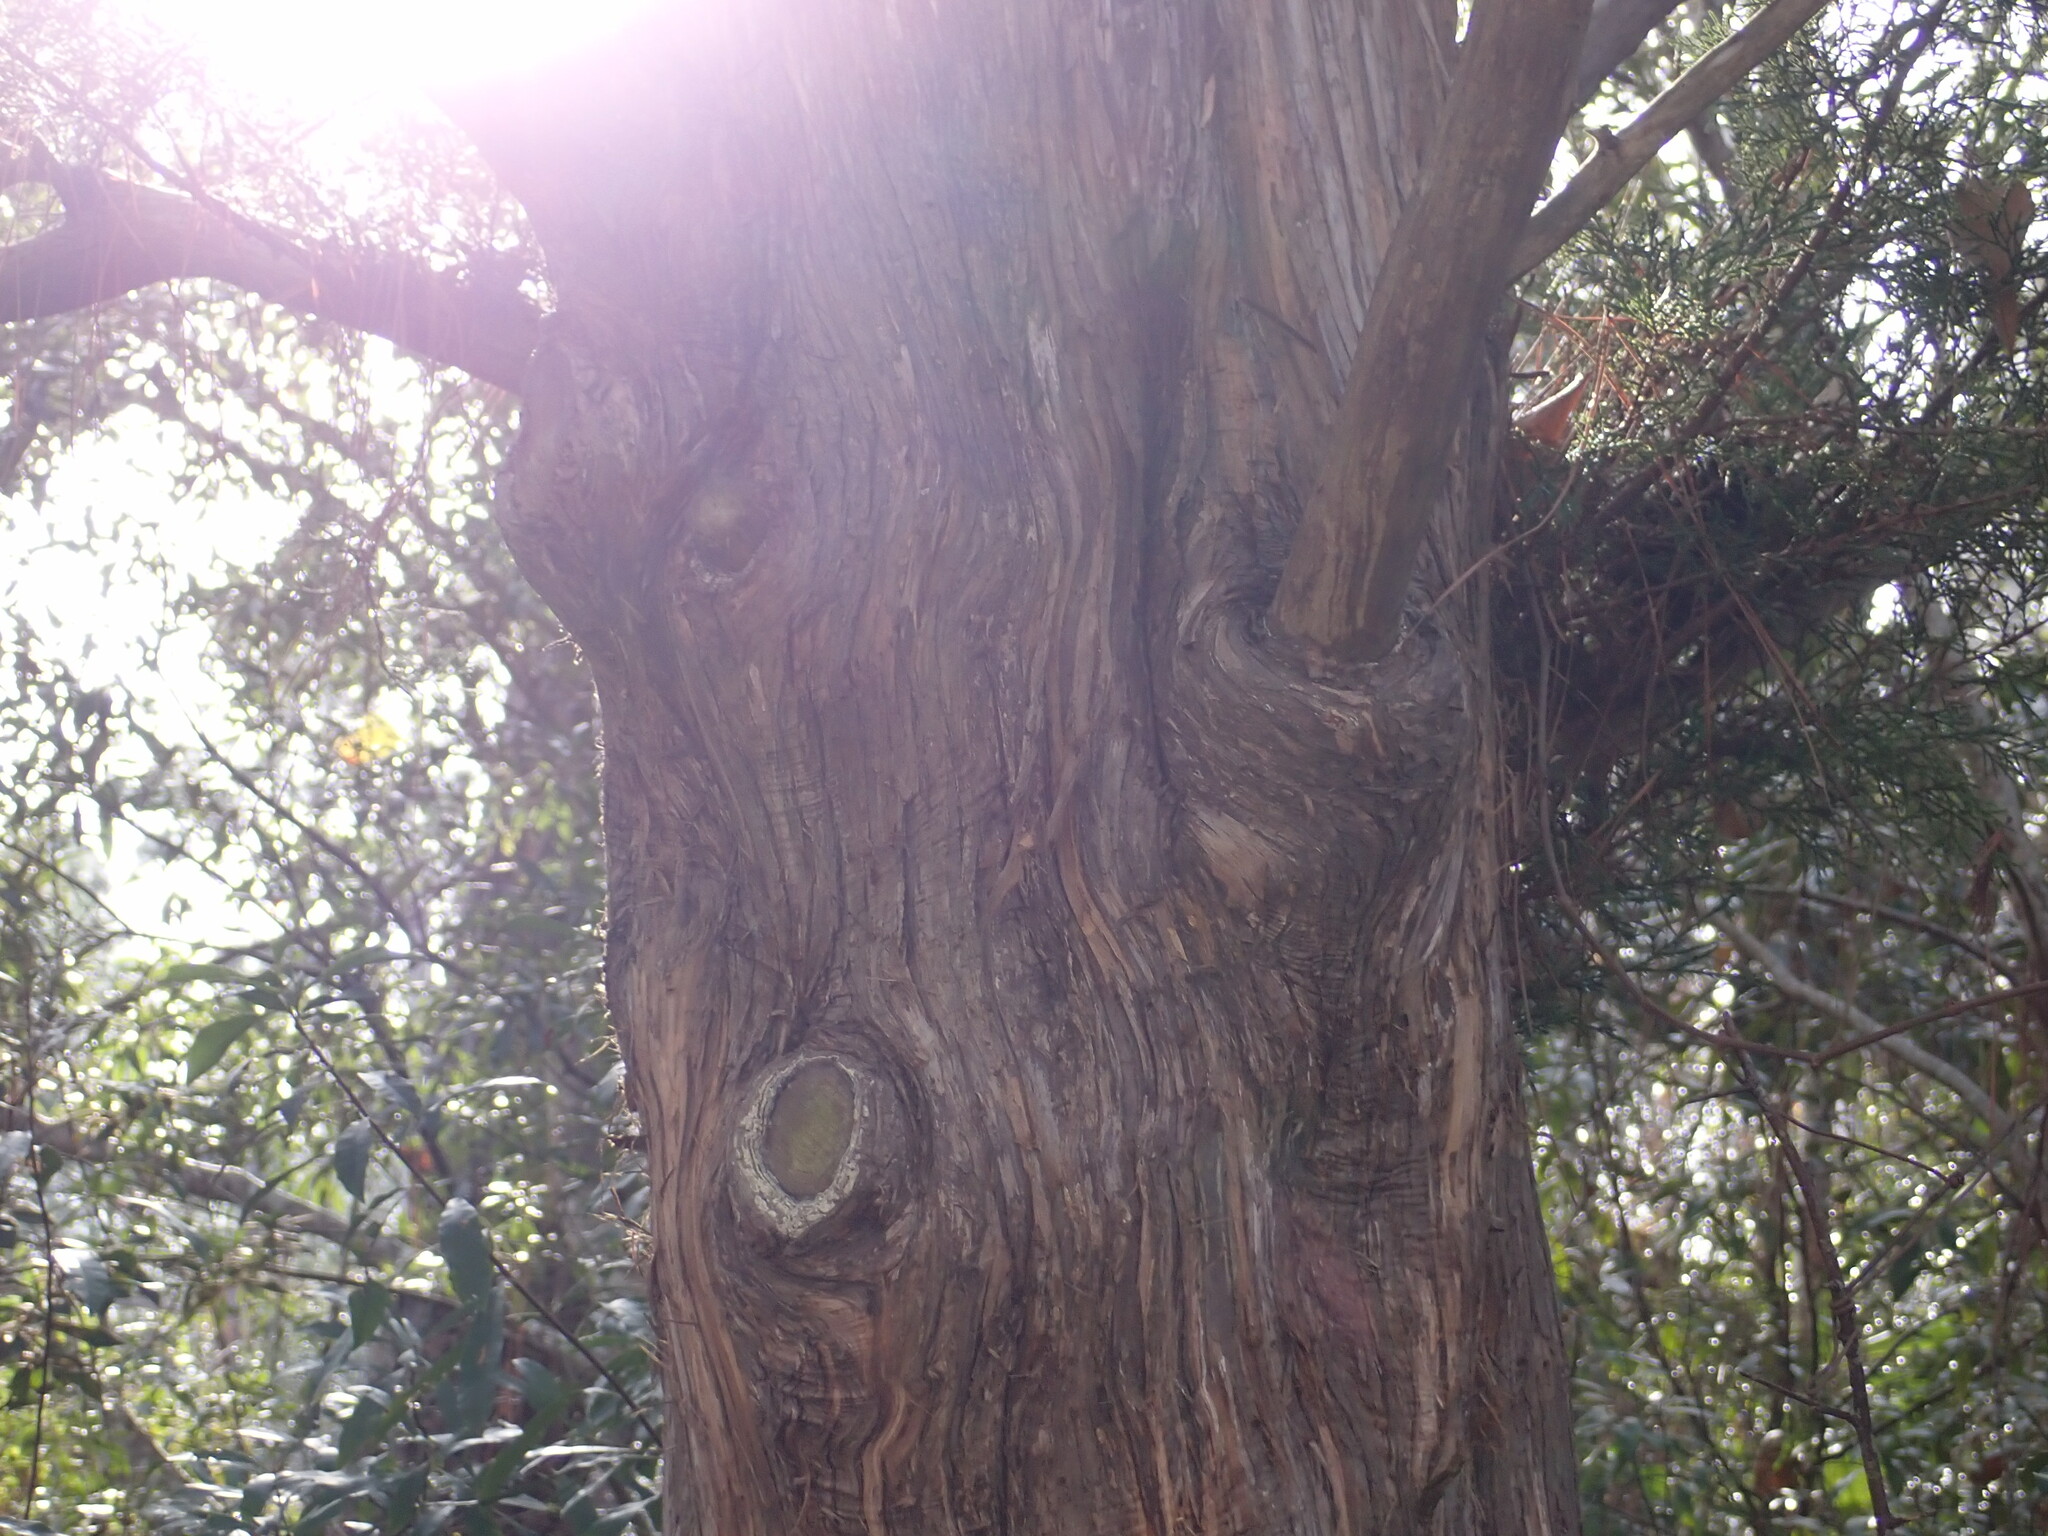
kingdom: Plantae
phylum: Tracheophyta
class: Pinopsida
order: Pinales
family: Cupressaceae
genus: Juniperus
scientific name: Juniperus virginiana
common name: Red juniper
